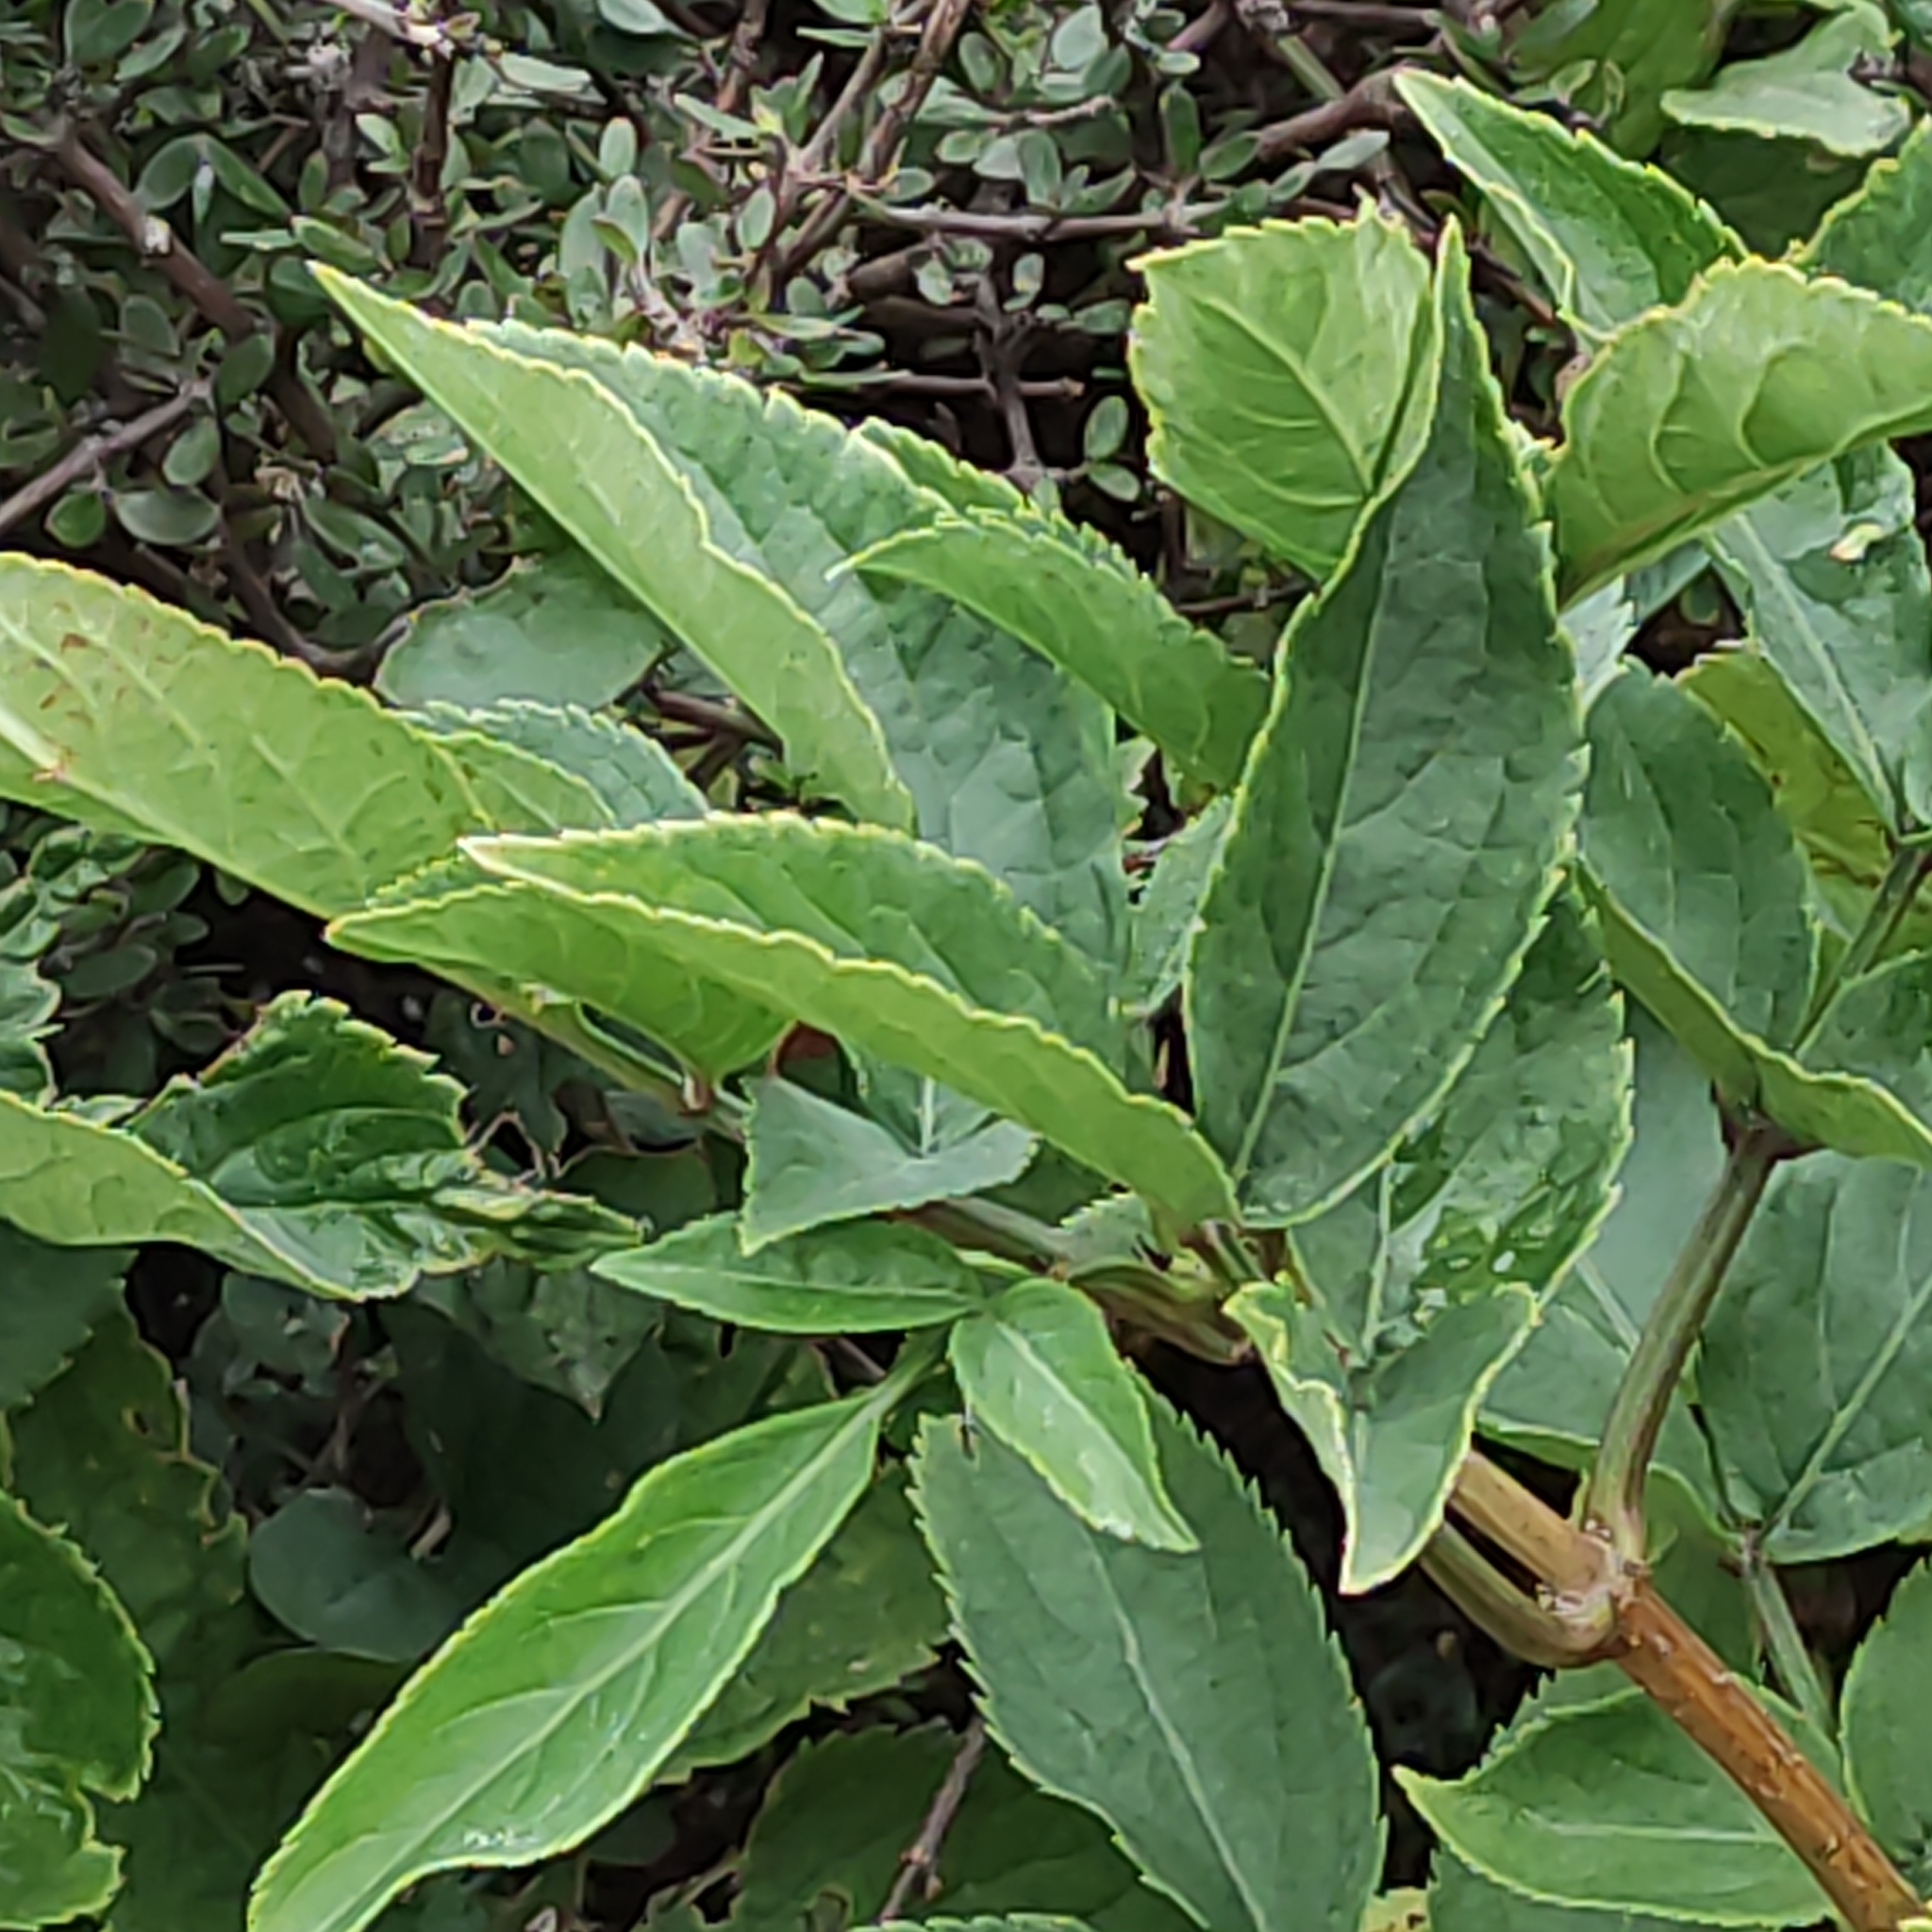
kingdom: Plantae
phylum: Tracheophyta
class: Magnoliopsida
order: Dipsacales
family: Viburnaceae
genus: Sambucus
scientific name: Sambucus nigra
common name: Elder
